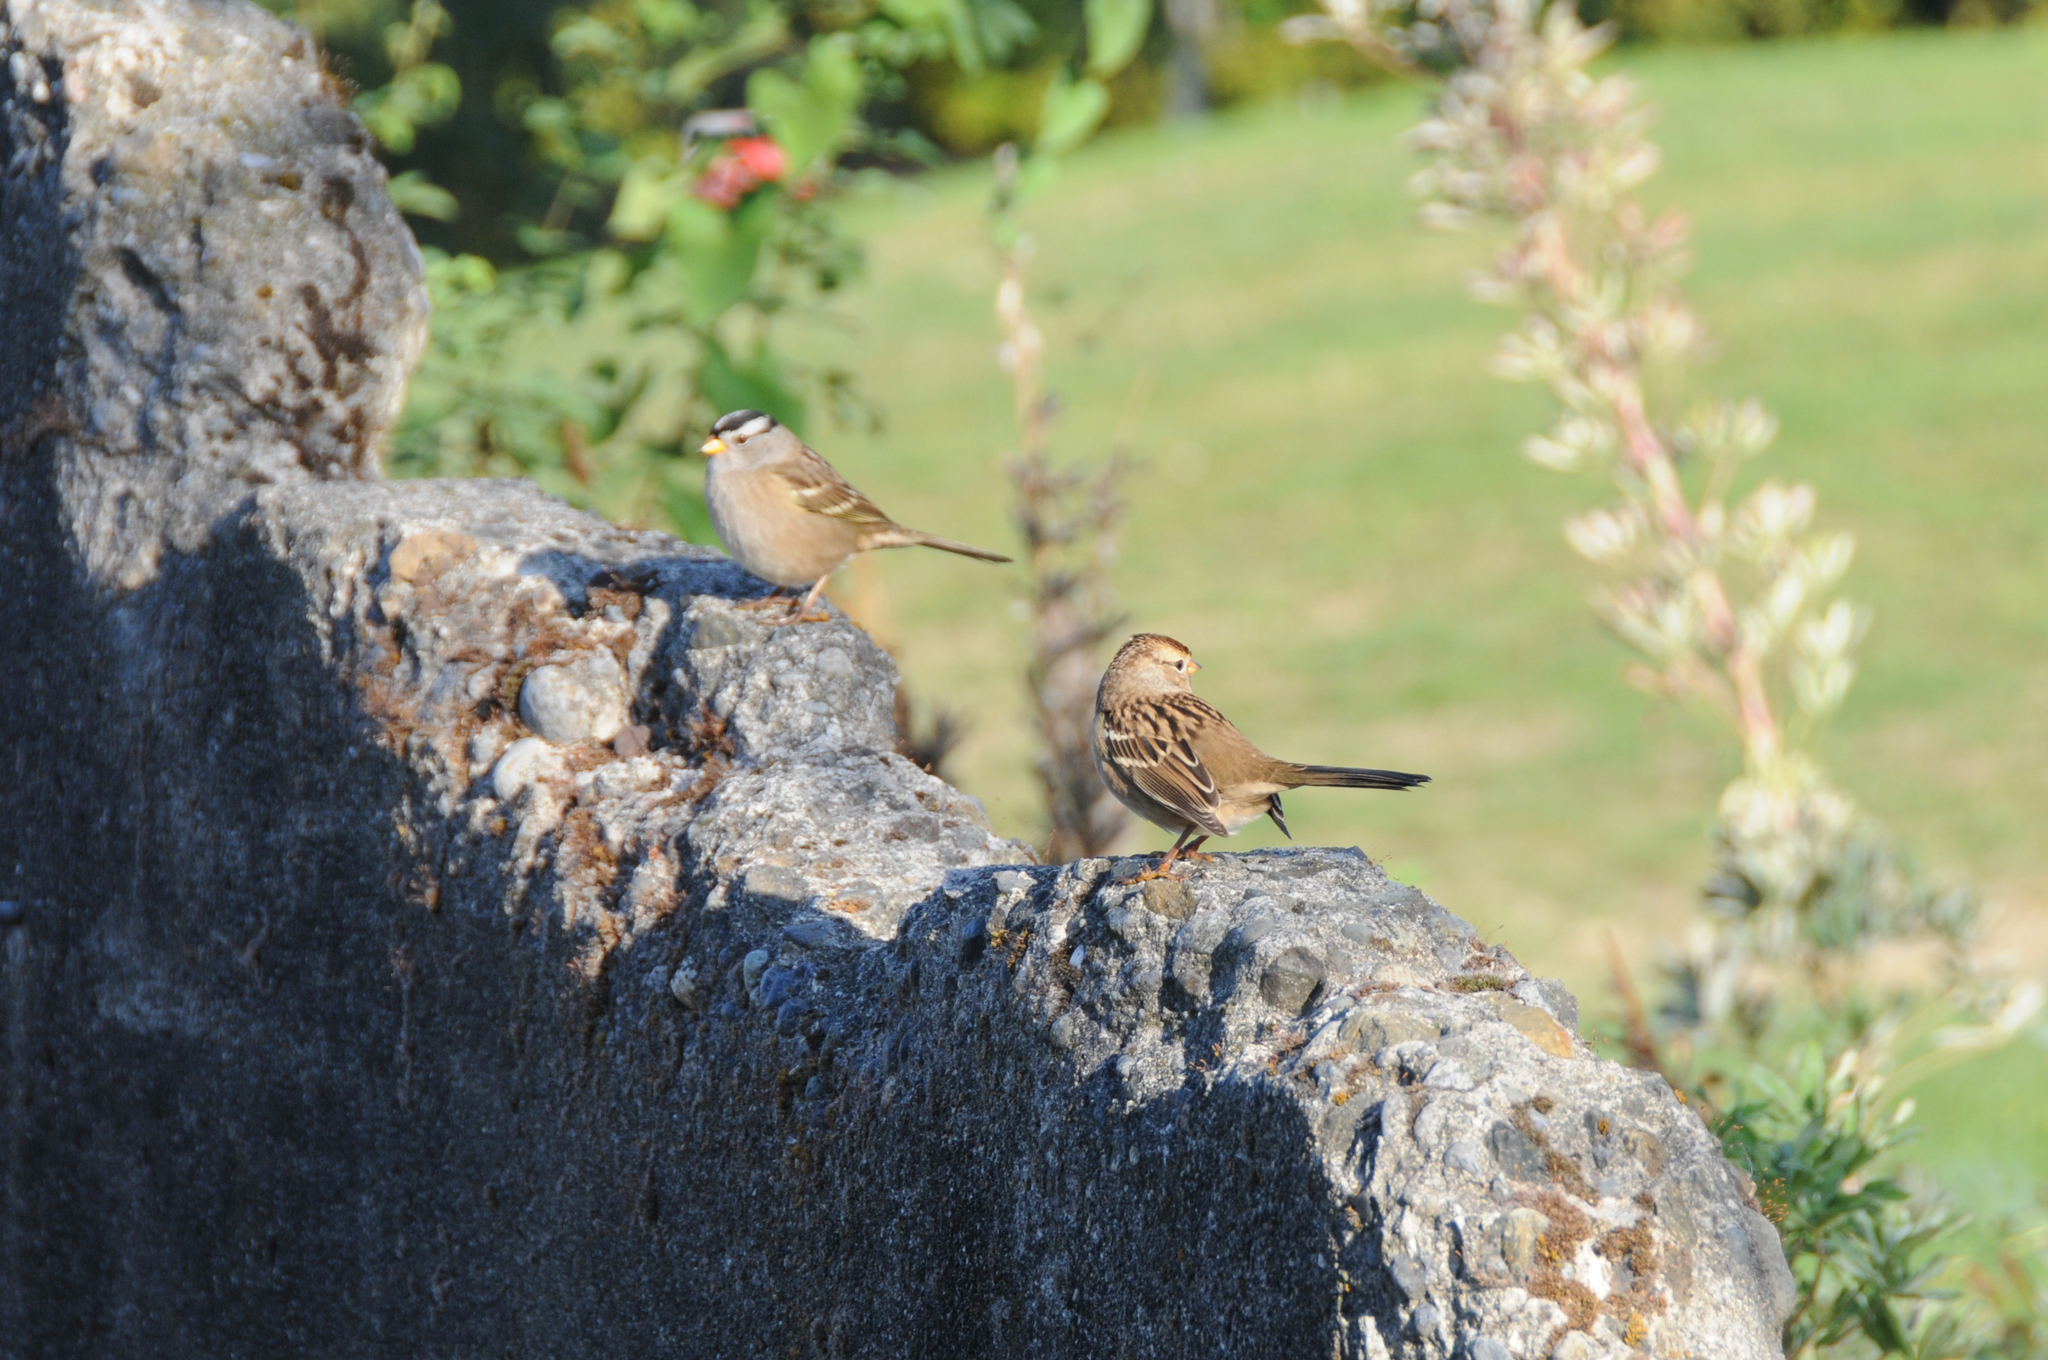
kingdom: Animalia
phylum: Chordata
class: Aves
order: Passeriformes
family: Passerellidae
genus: Zonotrichia
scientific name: Zonotrichia leucophrys
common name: White-crowned sparrow
